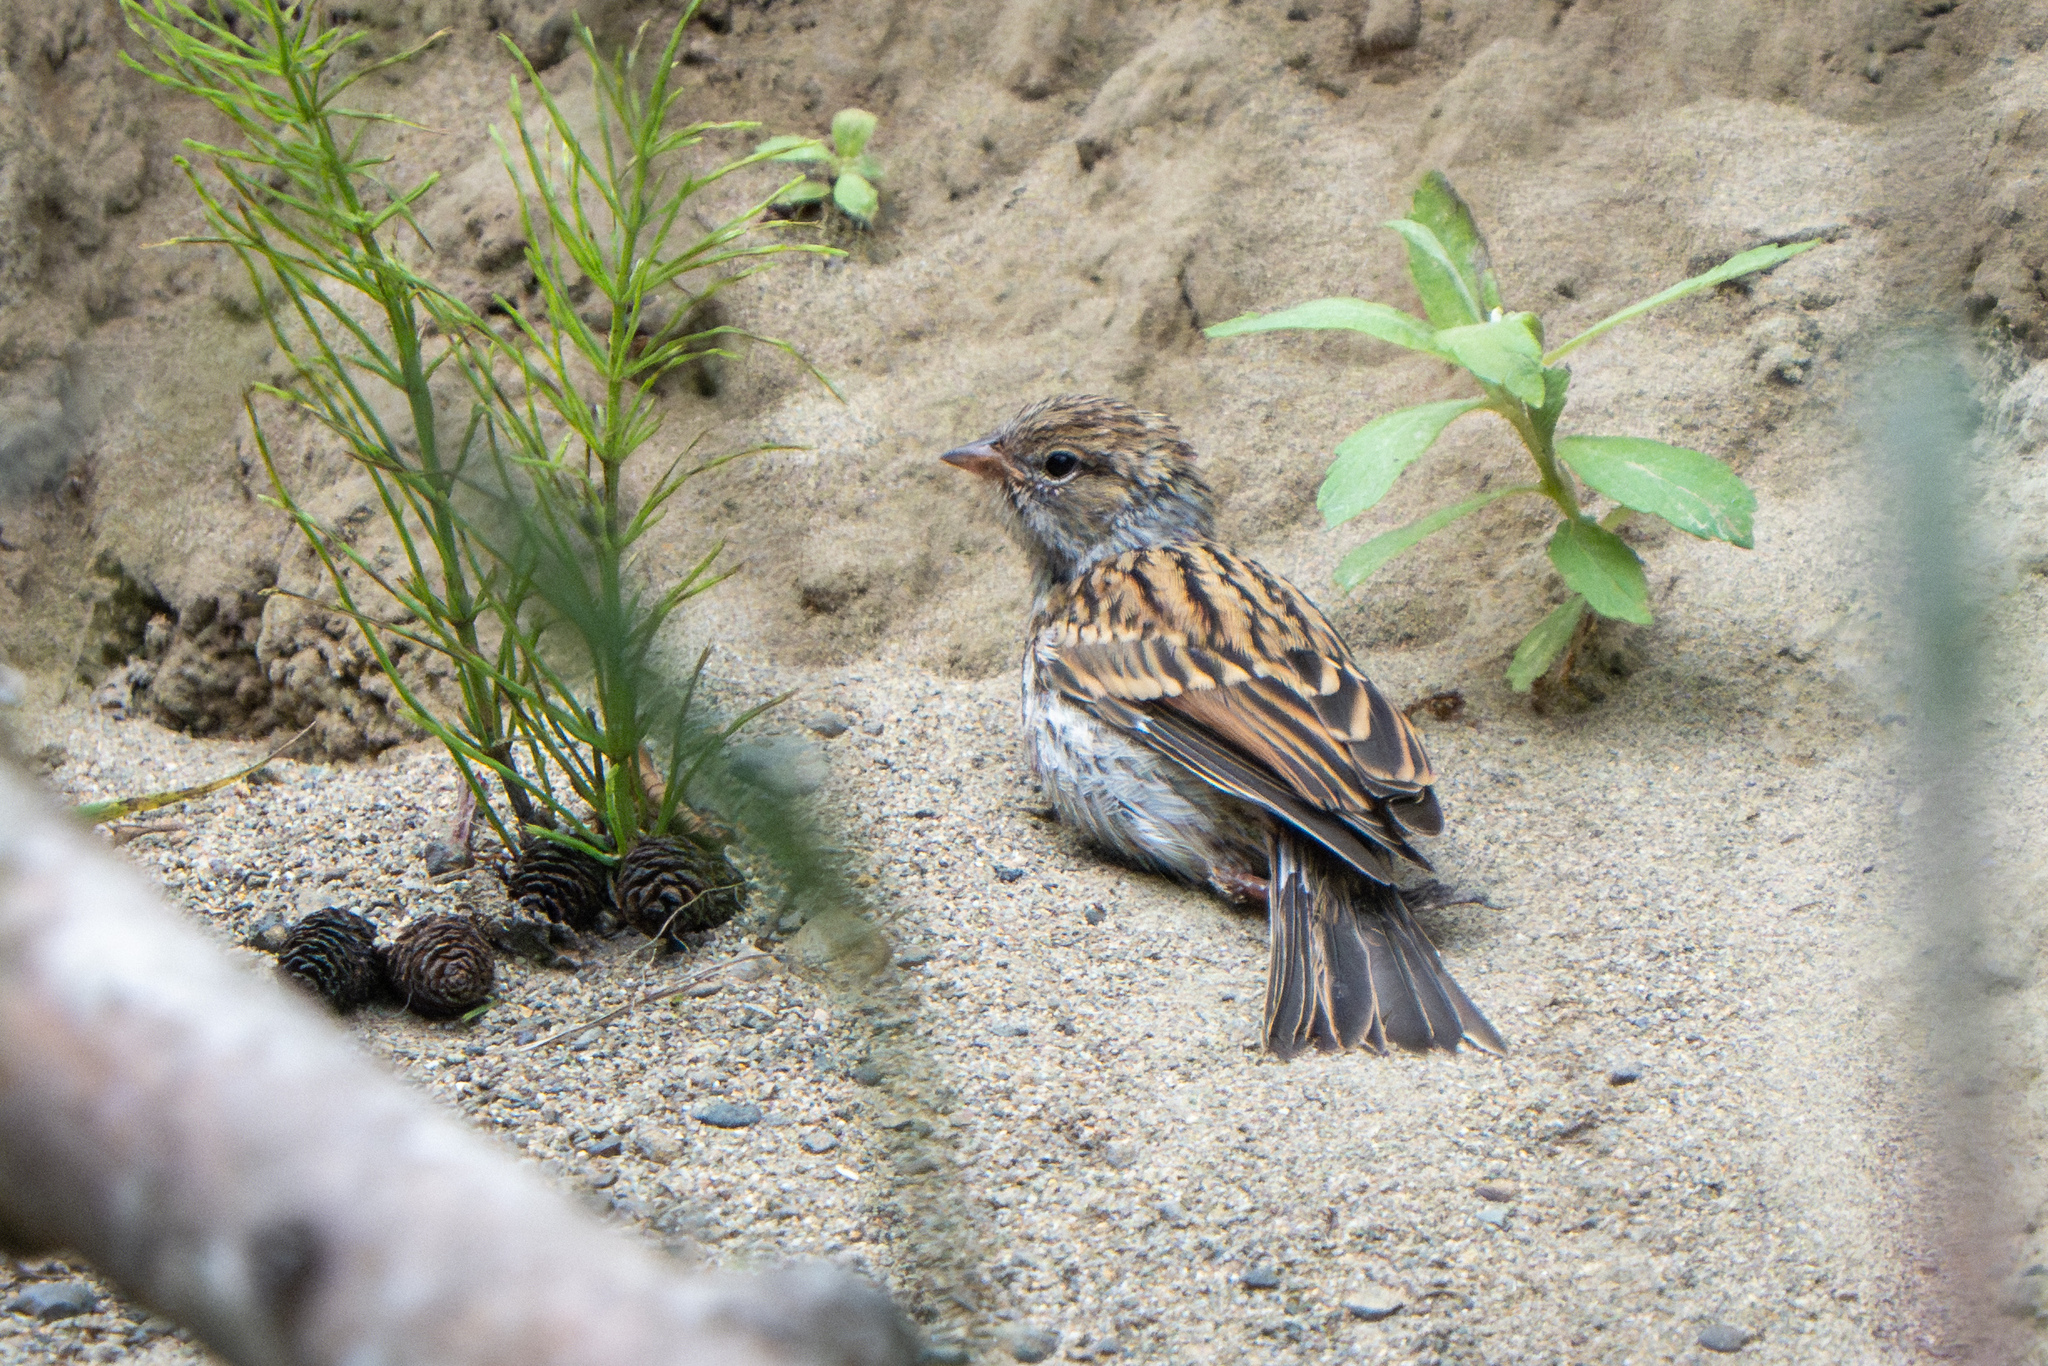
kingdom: Animalia
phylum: Chordata
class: Aves
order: Passeriformes
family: Passerellidae
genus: Spizella
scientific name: Spizella passerina
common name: Chipping sparrow
